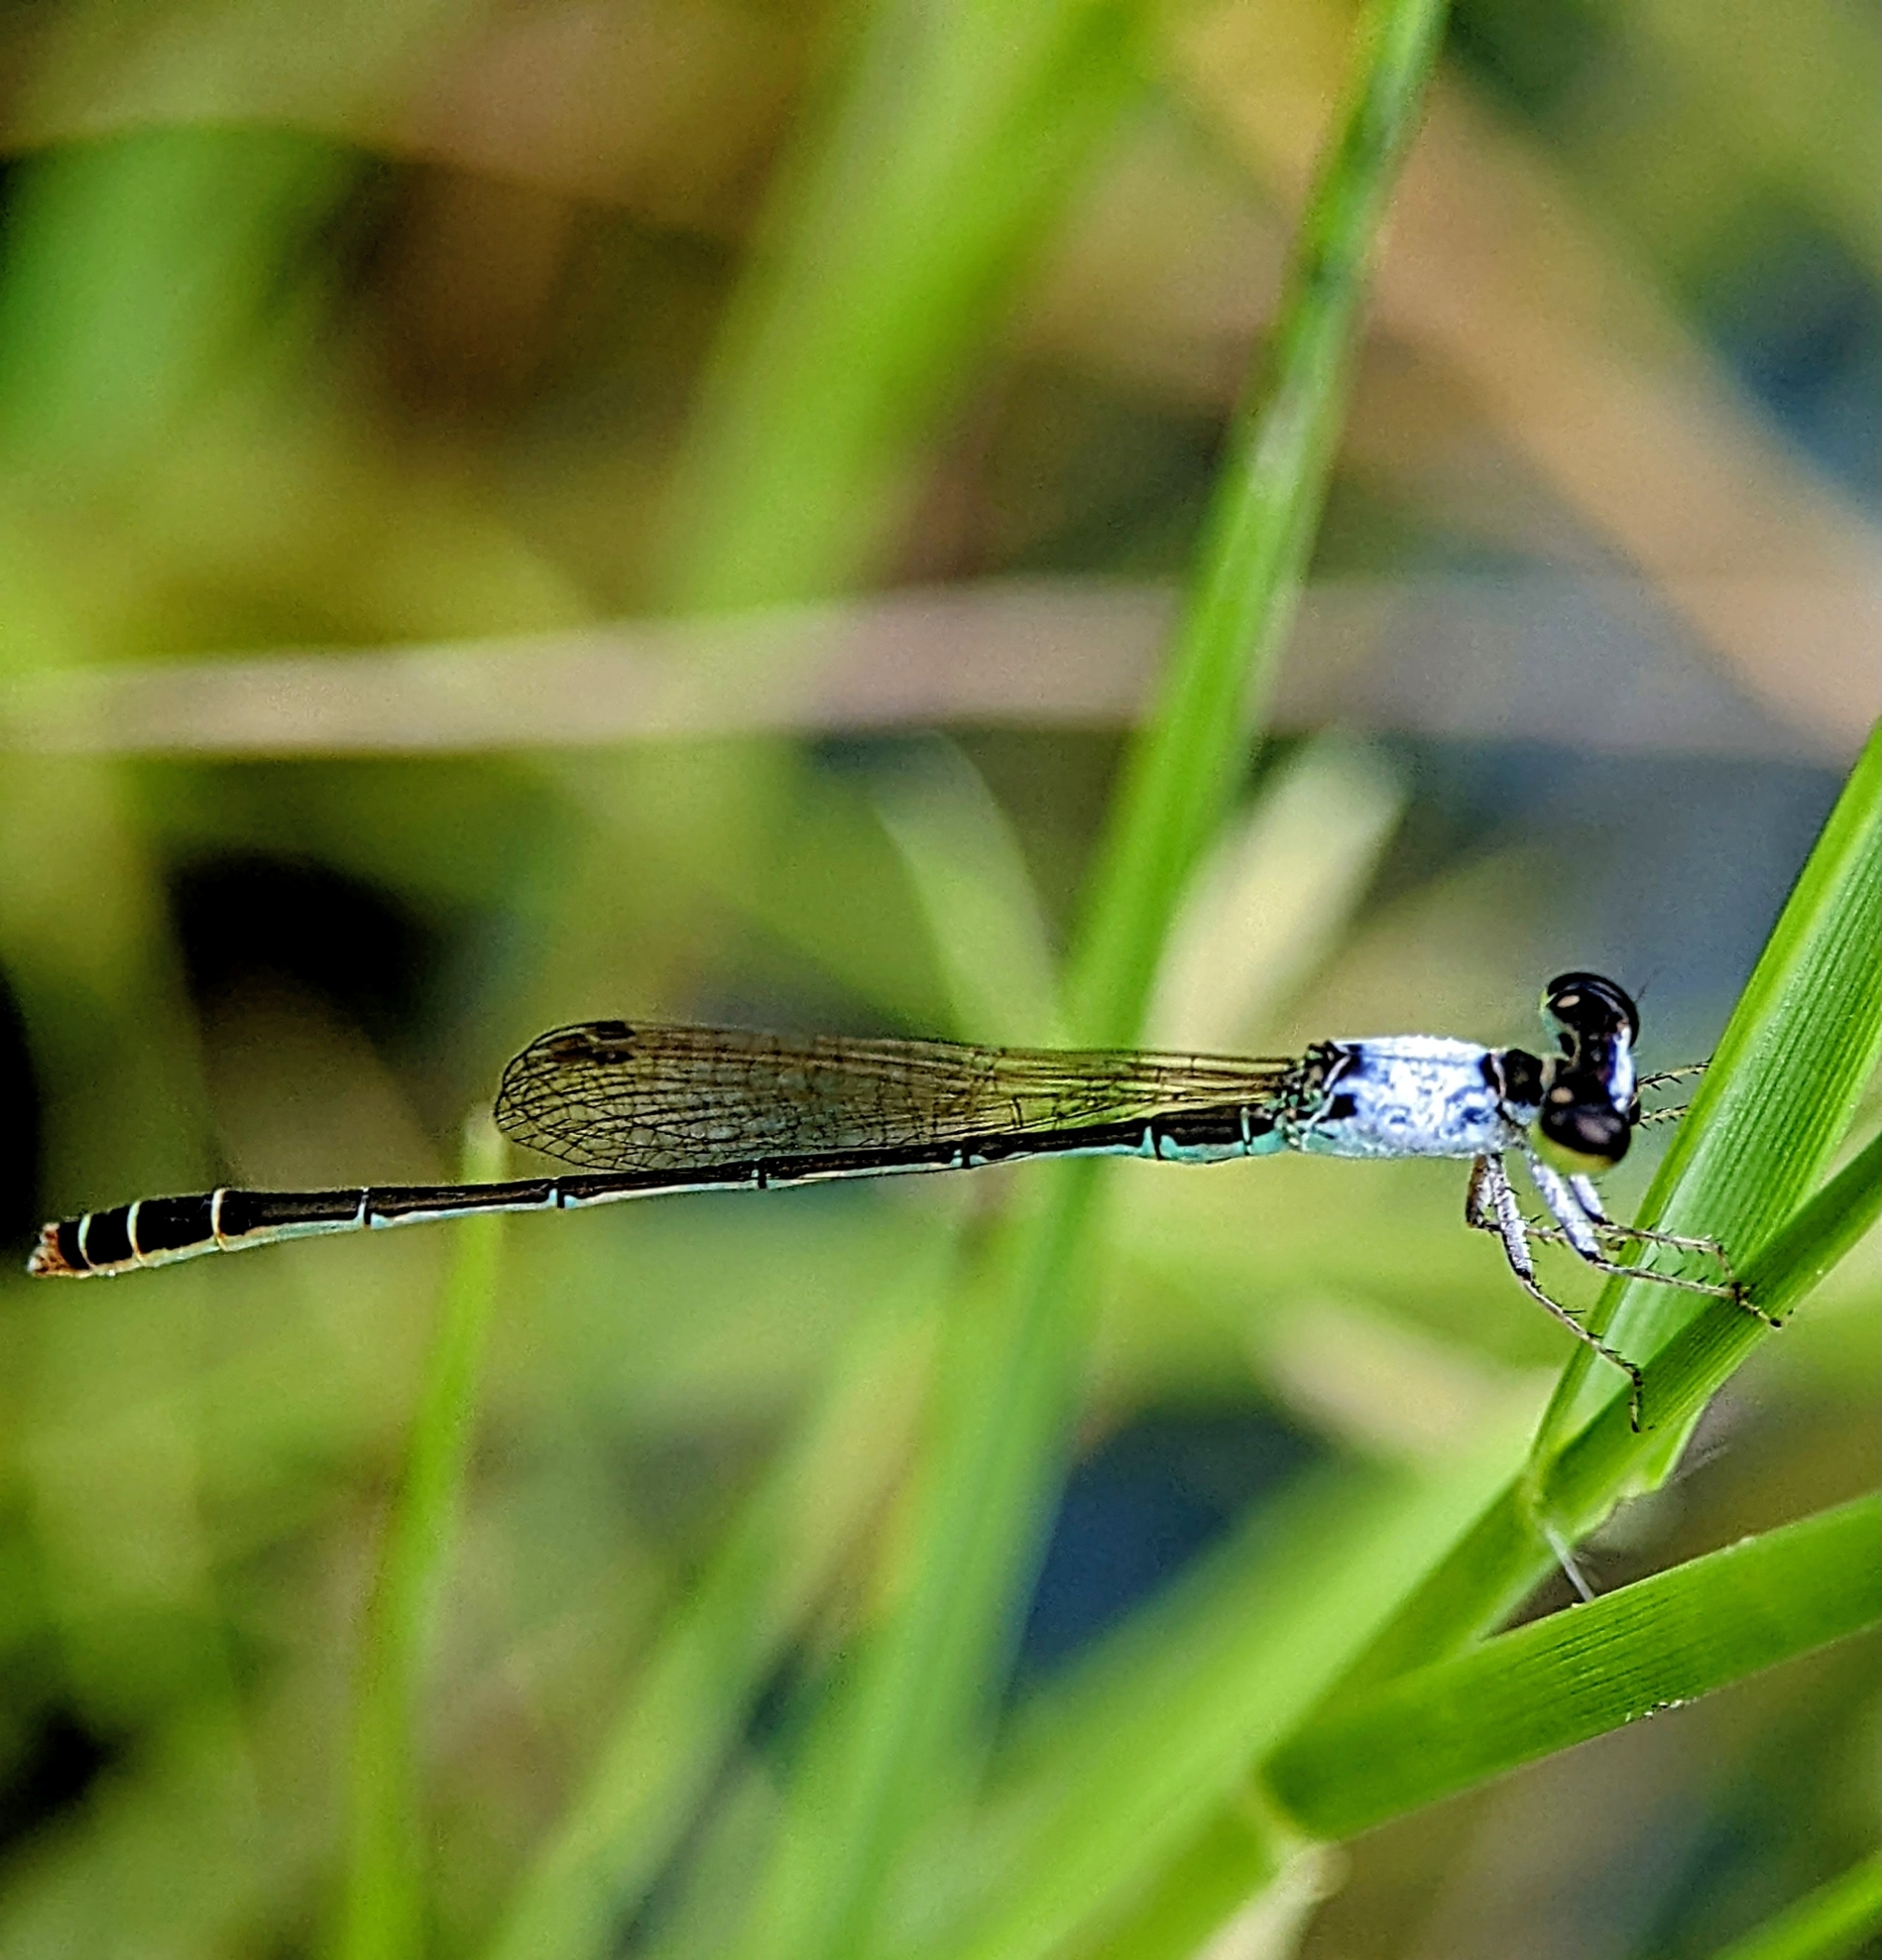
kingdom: Animalia
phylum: Arthropoda
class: Insecta
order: Odonata
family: Coenagrionidae
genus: Agriocnemis
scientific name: Agriocnemis femina
